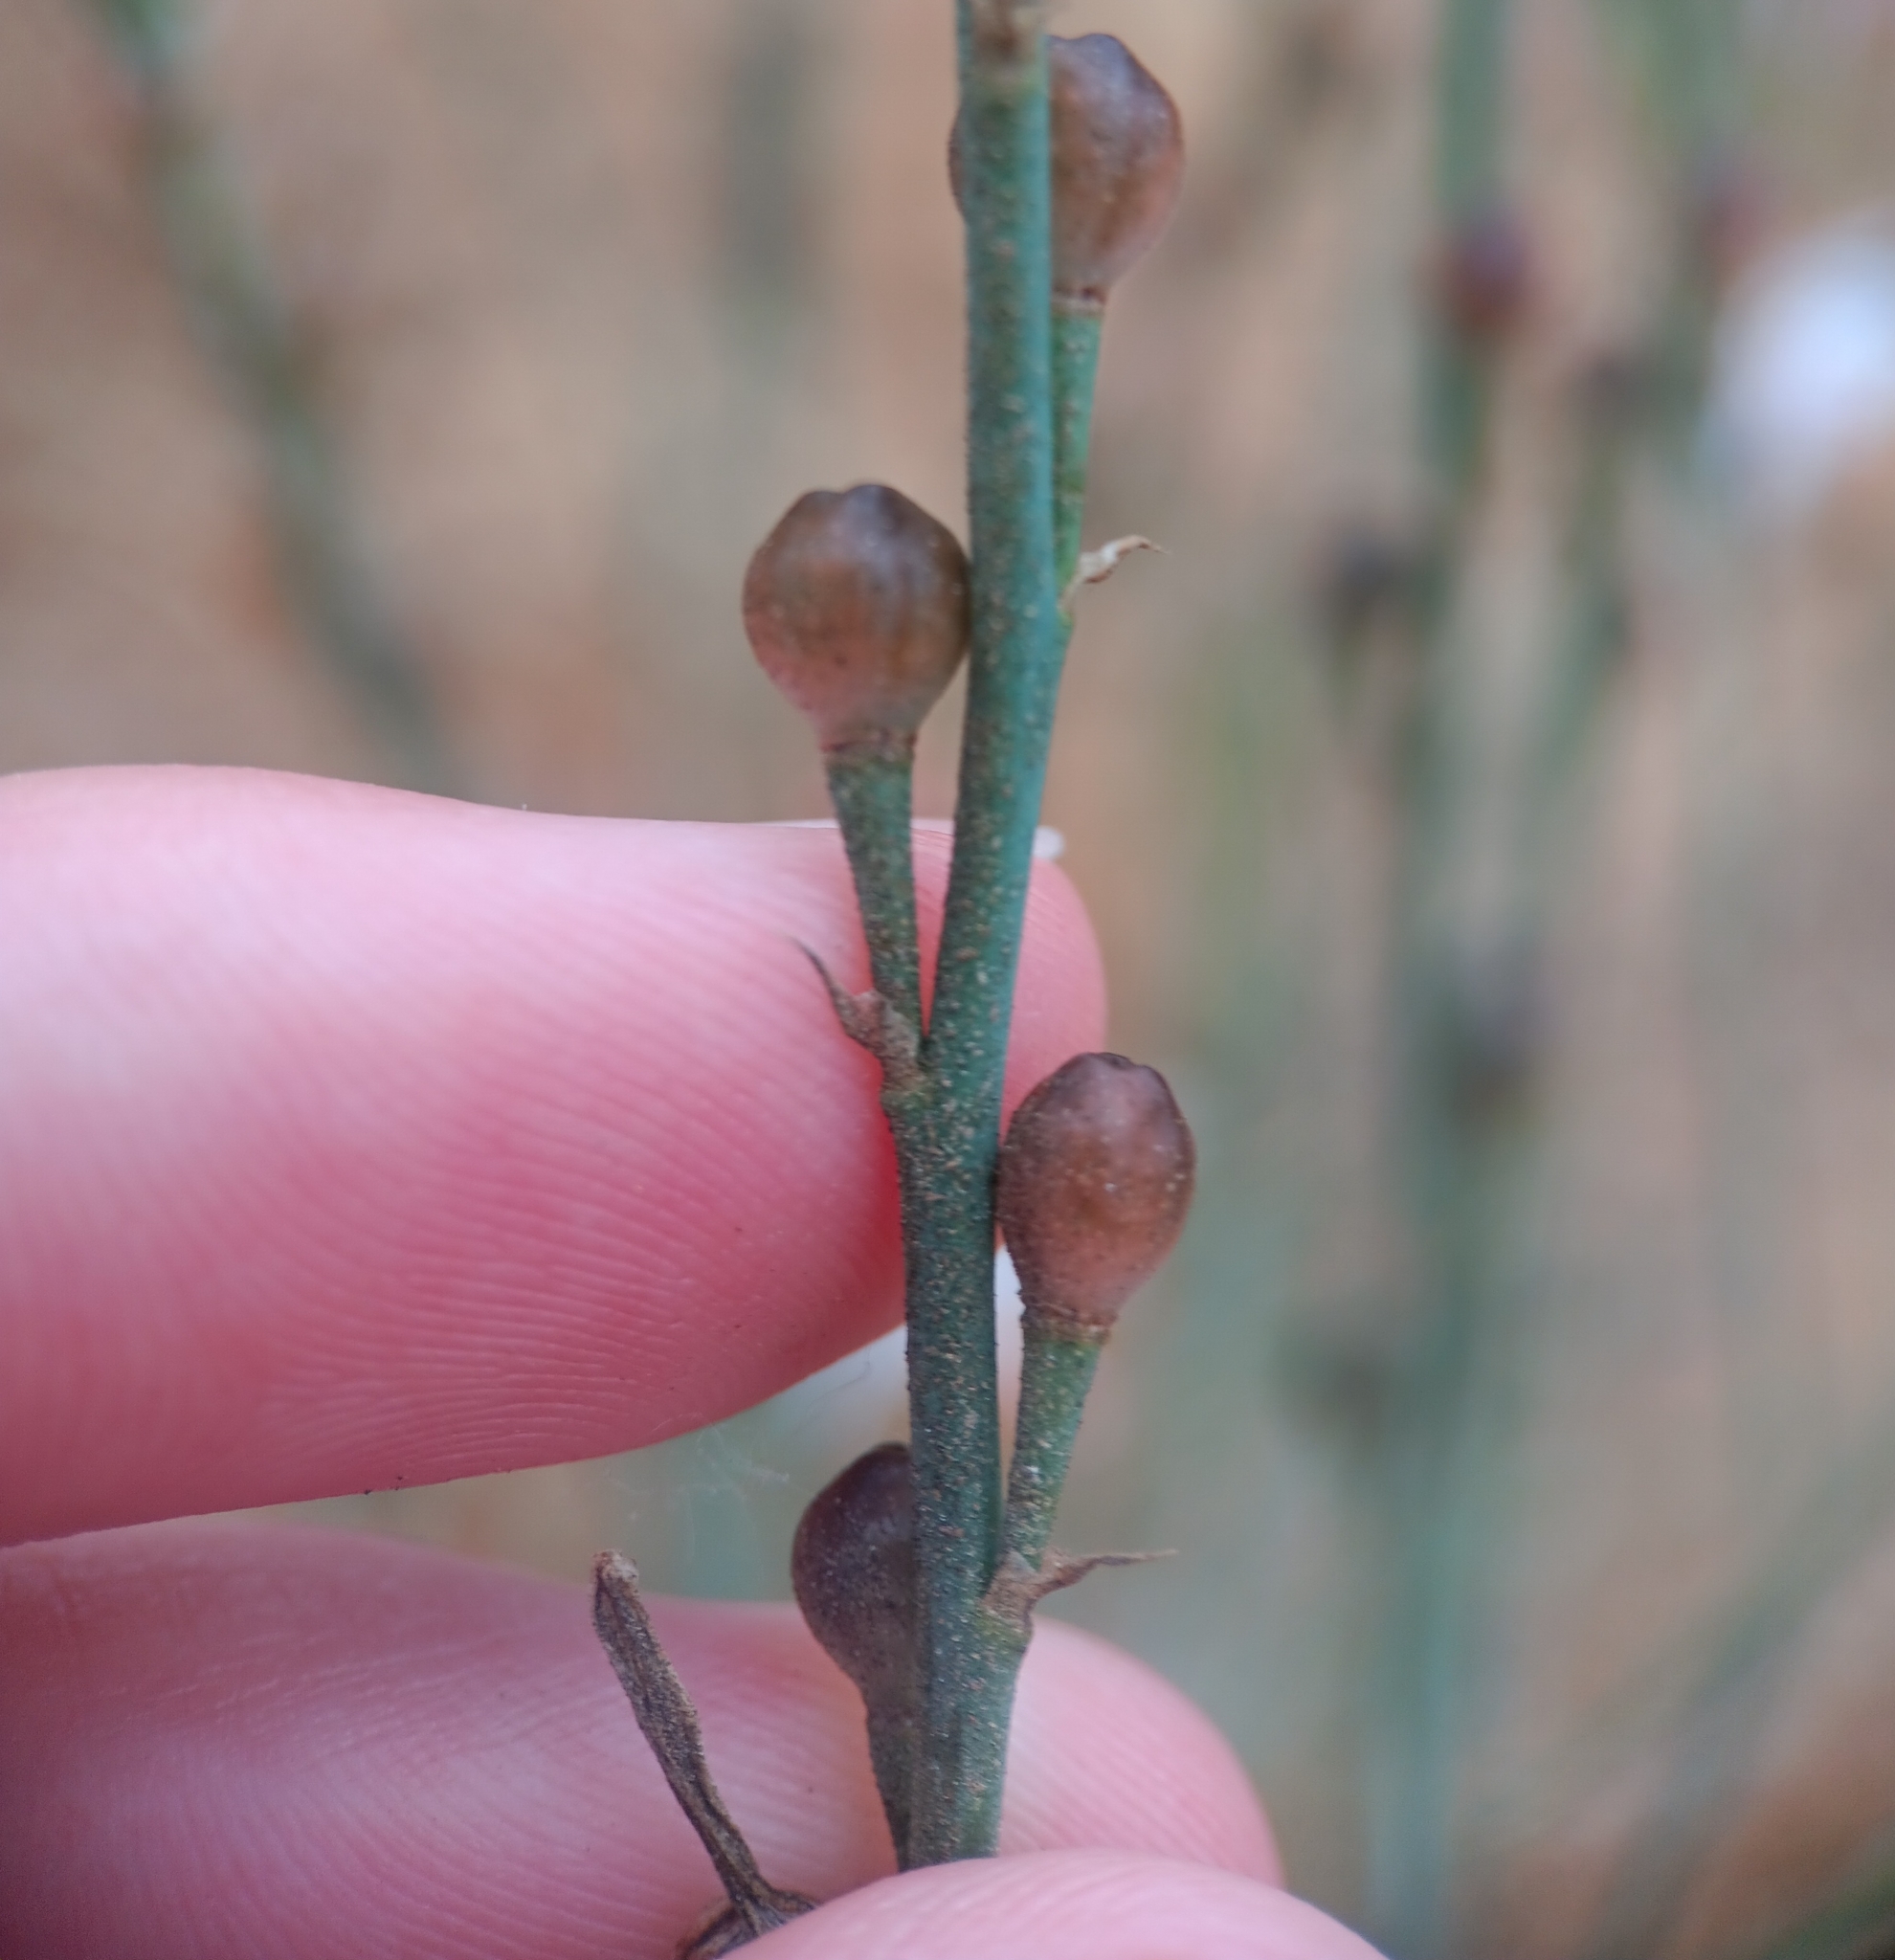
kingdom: Plantae
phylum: Tracheophyta
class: Liliopsida
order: Asparagales
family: Asphodelaceae
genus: Asphodelus
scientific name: Asphodelus fistulosus
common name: Onionweed
